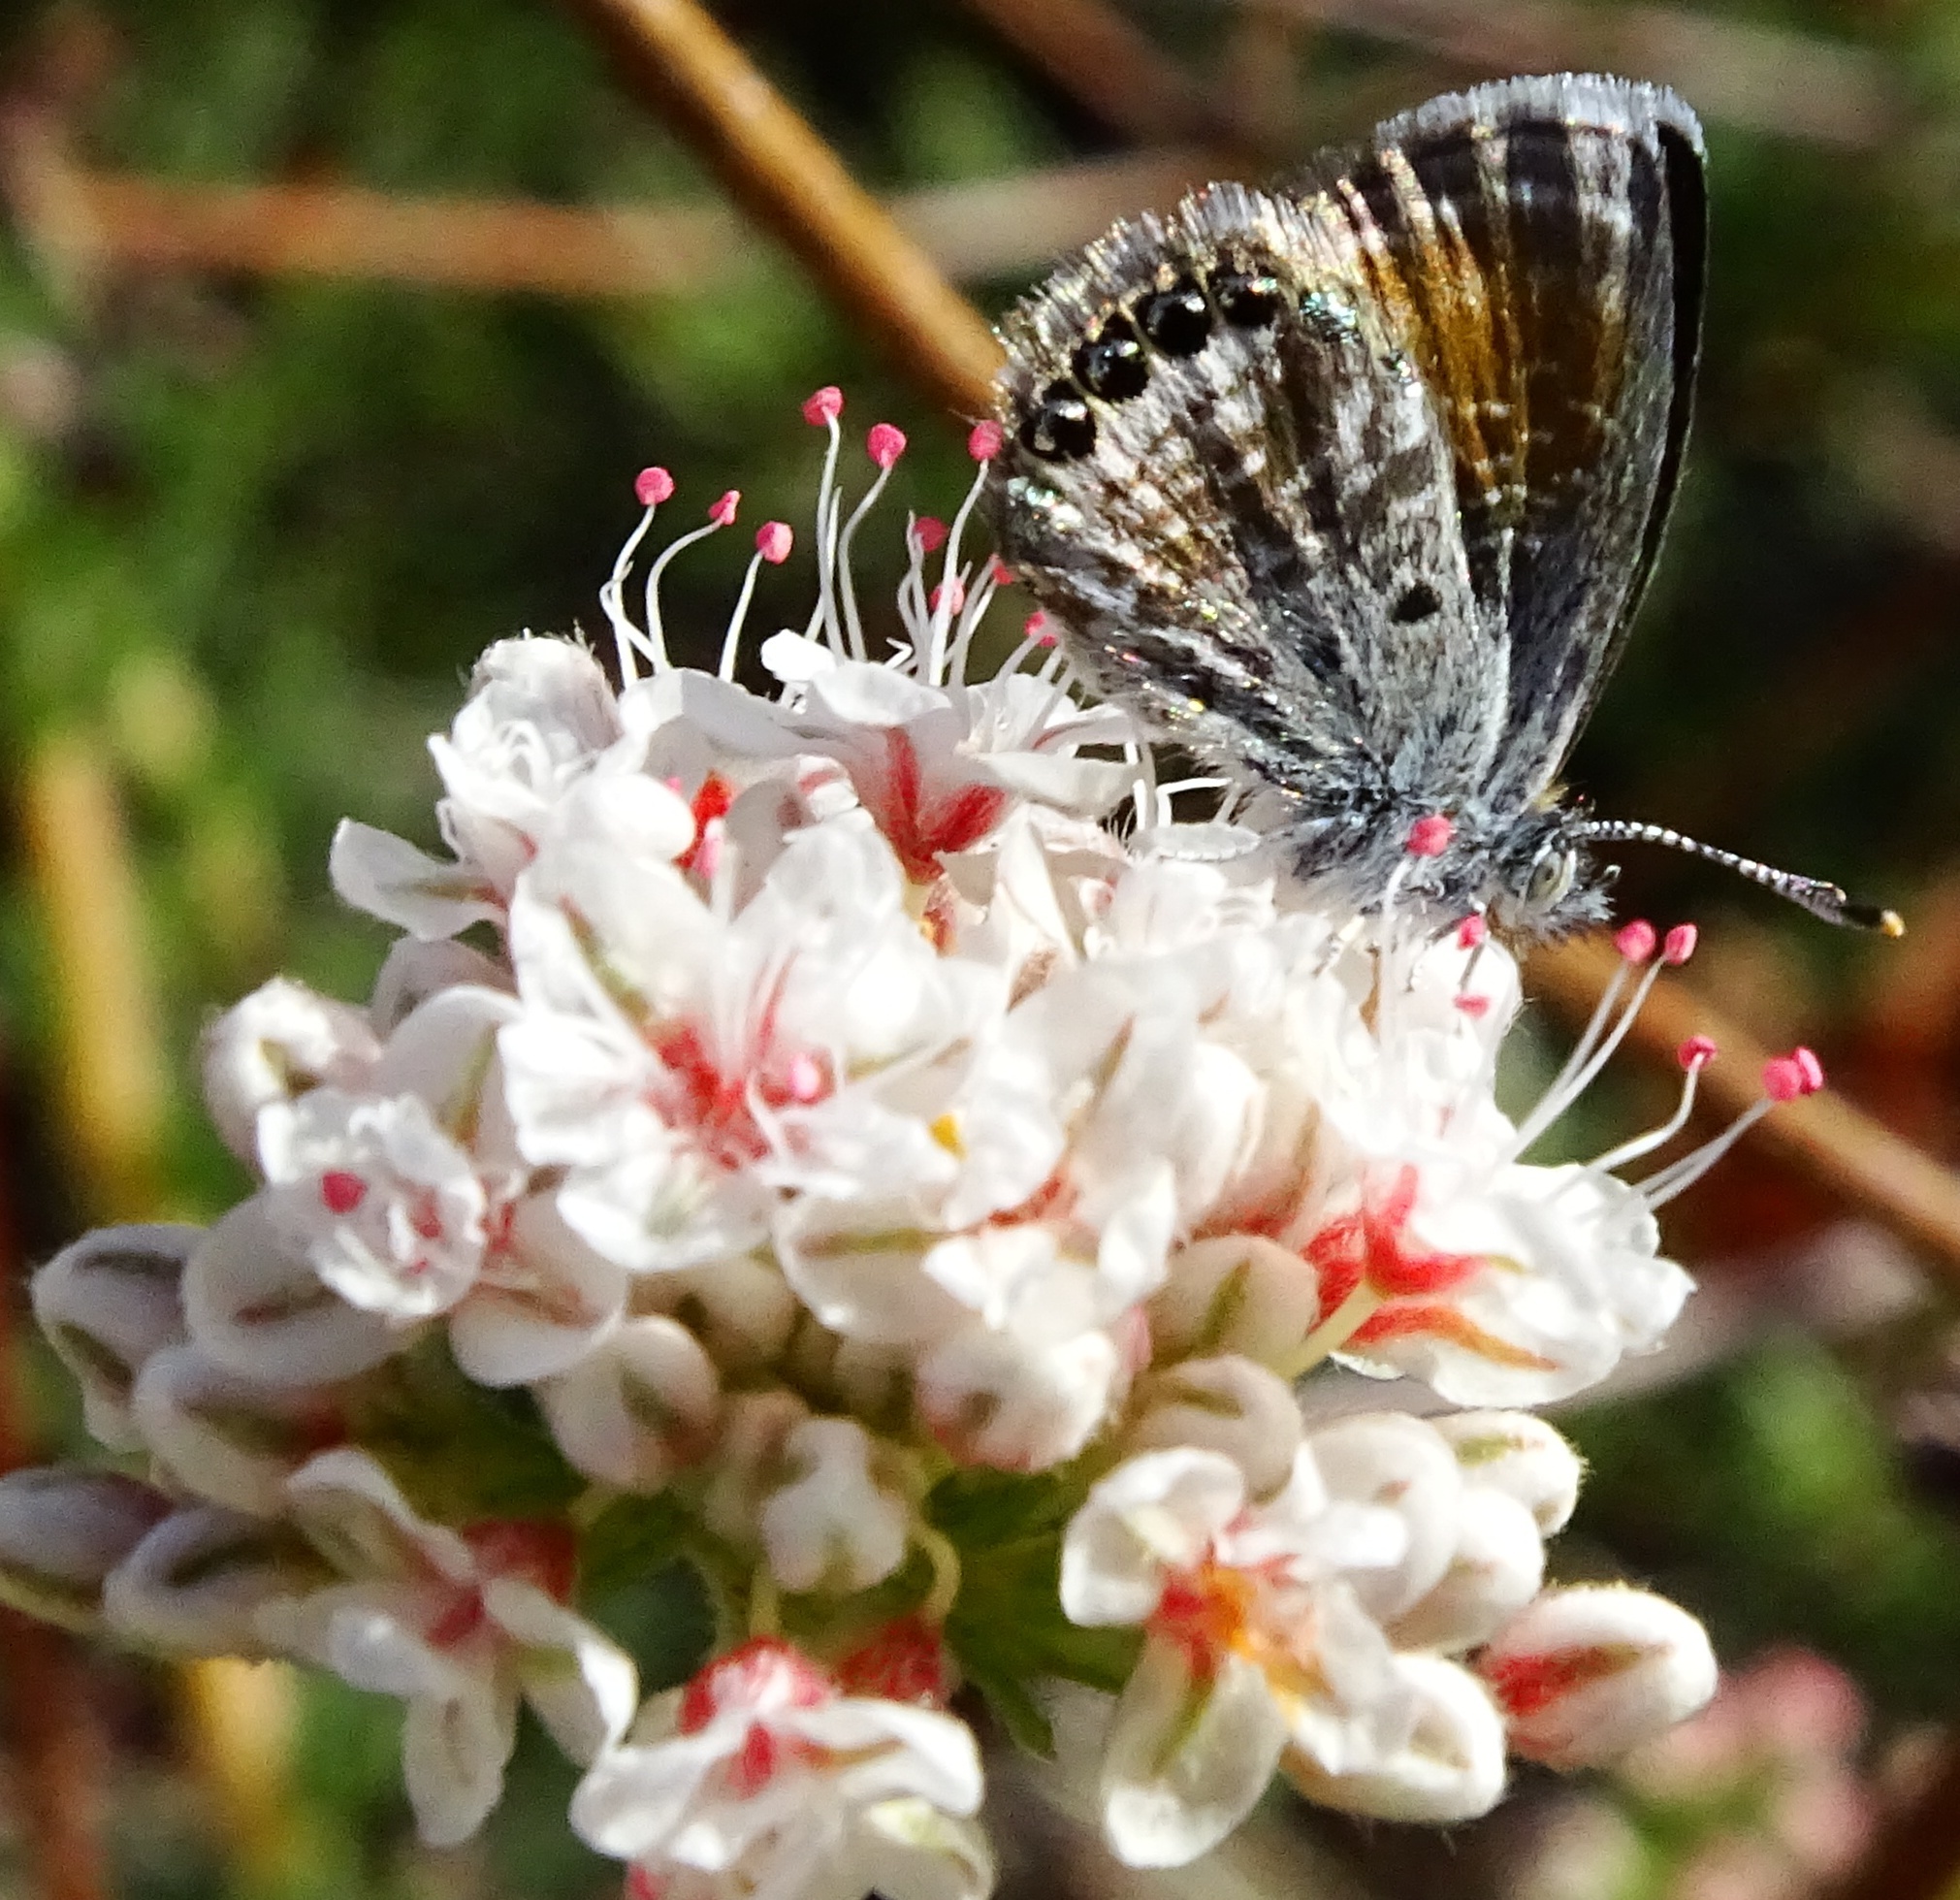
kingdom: Animalia
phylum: Arthropoda
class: Insecta
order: Lepidoptera
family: Lycaenidae
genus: Brephidium
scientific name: Brephidium exilis
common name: Pygmy blue
